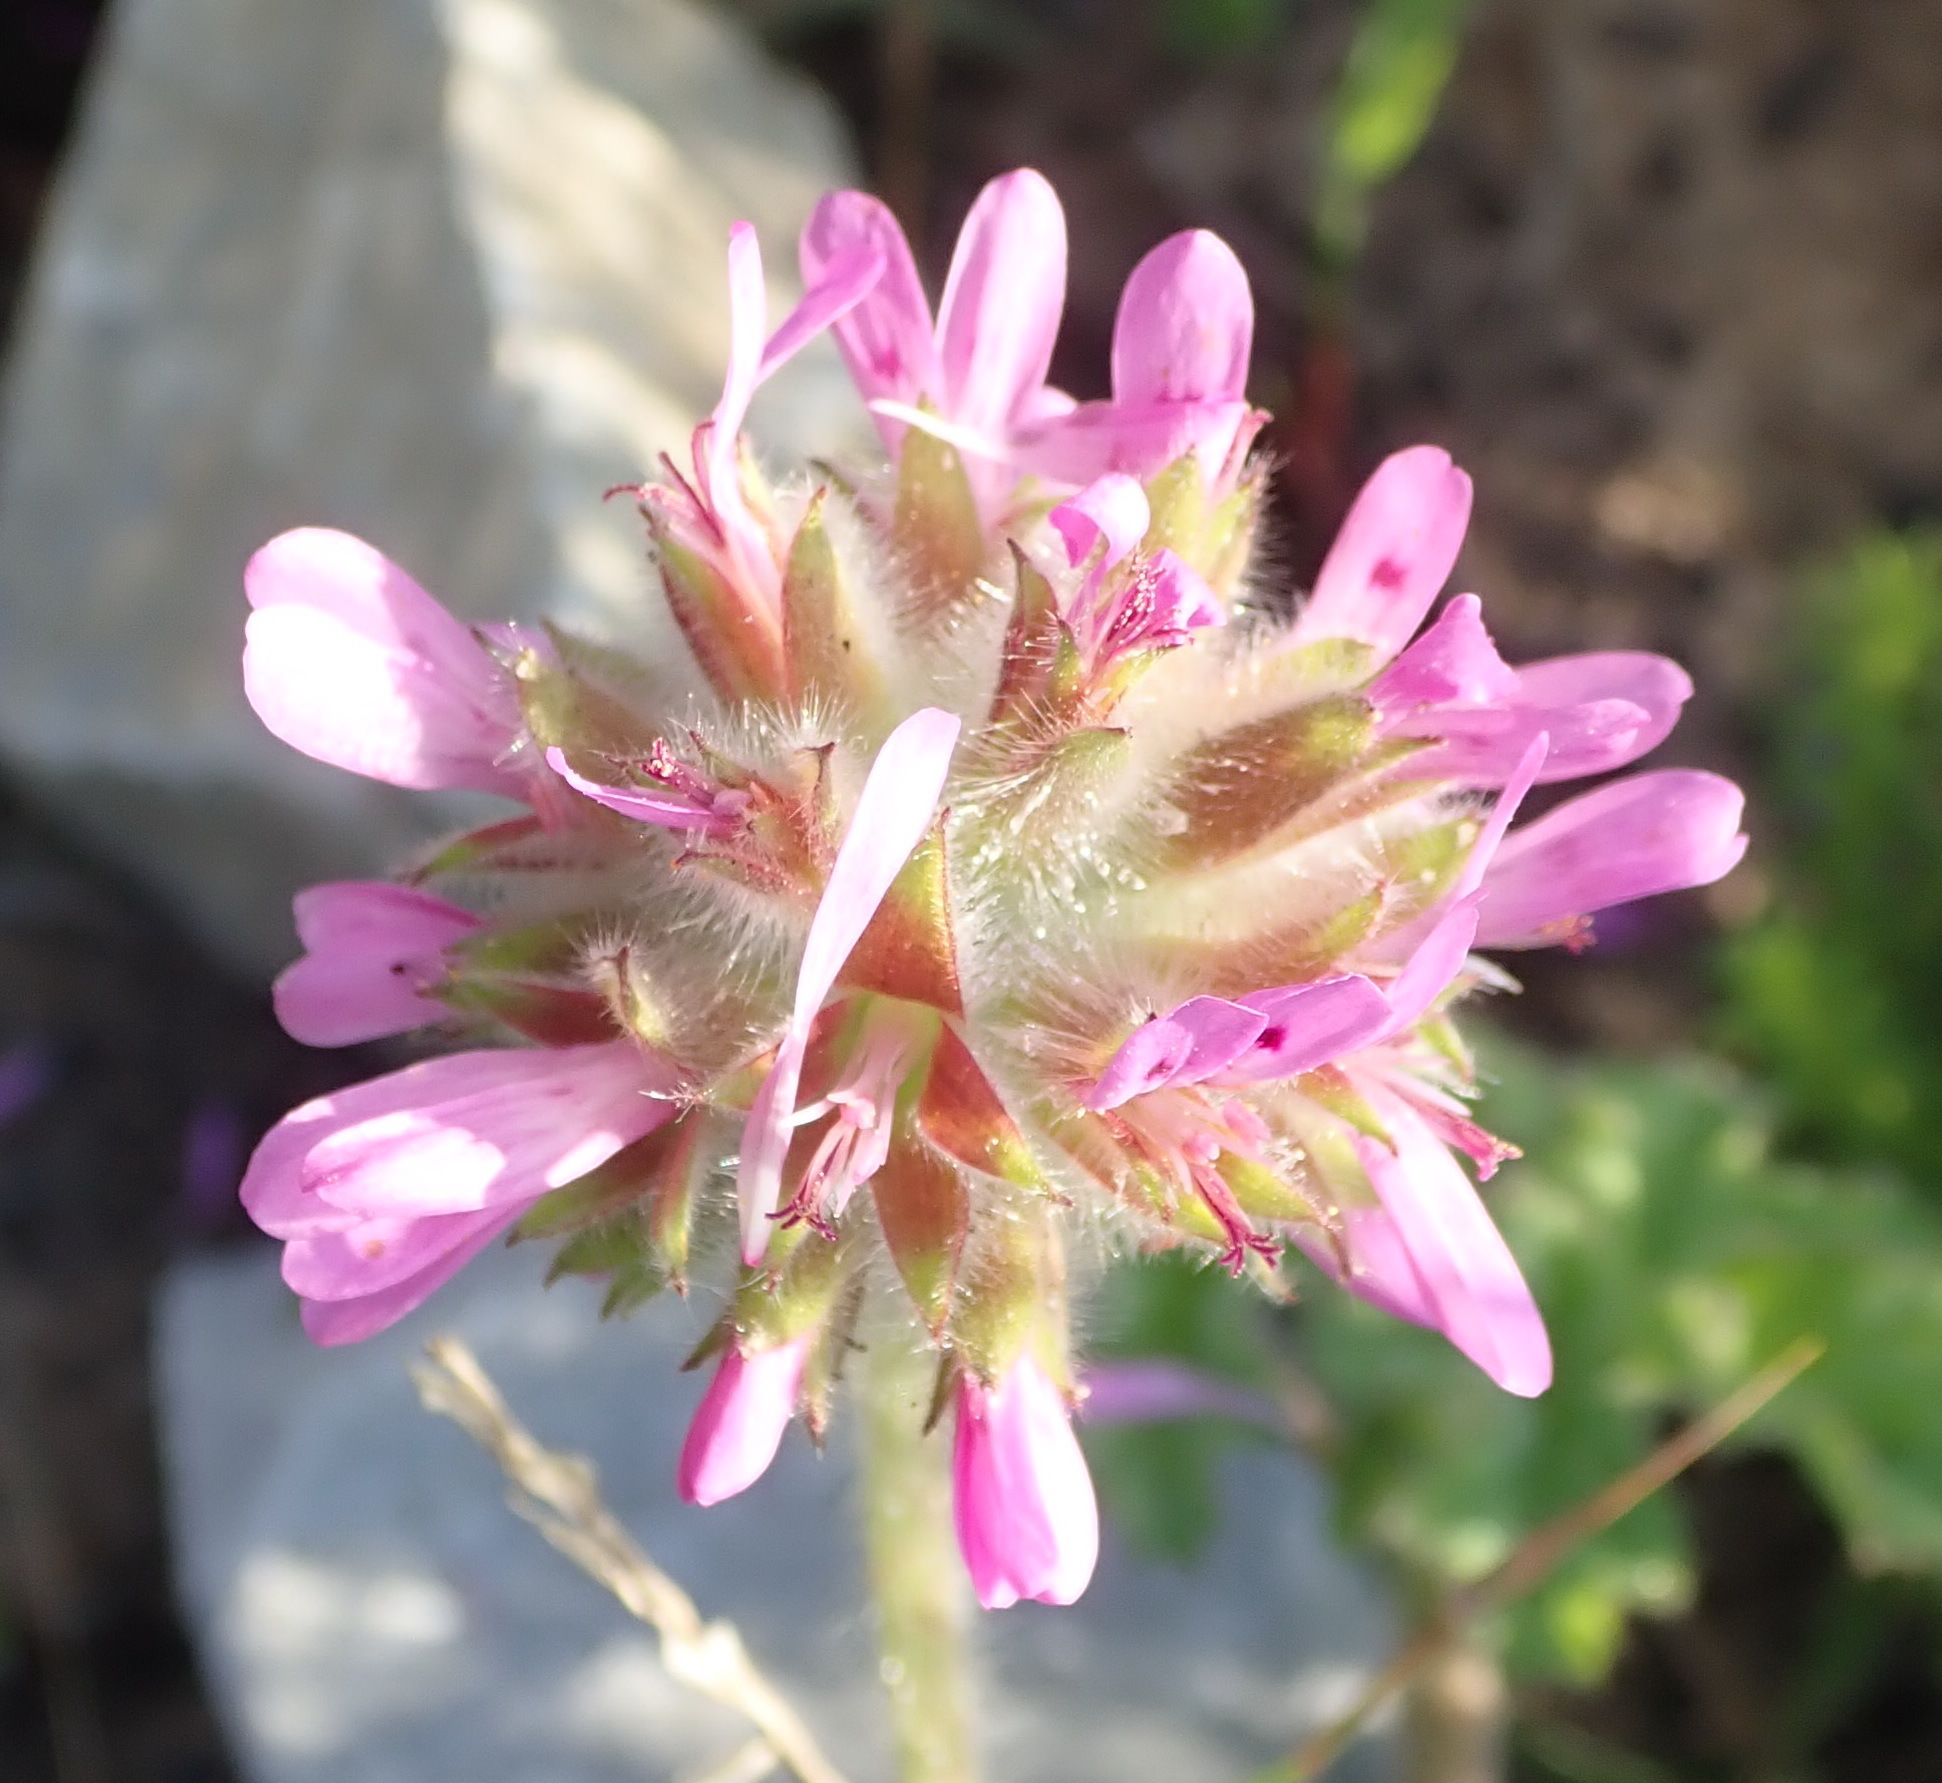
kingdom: Plantae
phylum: Tracheophyta
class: Magnoliopsida
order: Geraniales
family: Geraniaceae
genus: Pelargonium
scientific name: Pelargonium capitatum
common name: Rose scented geranium
